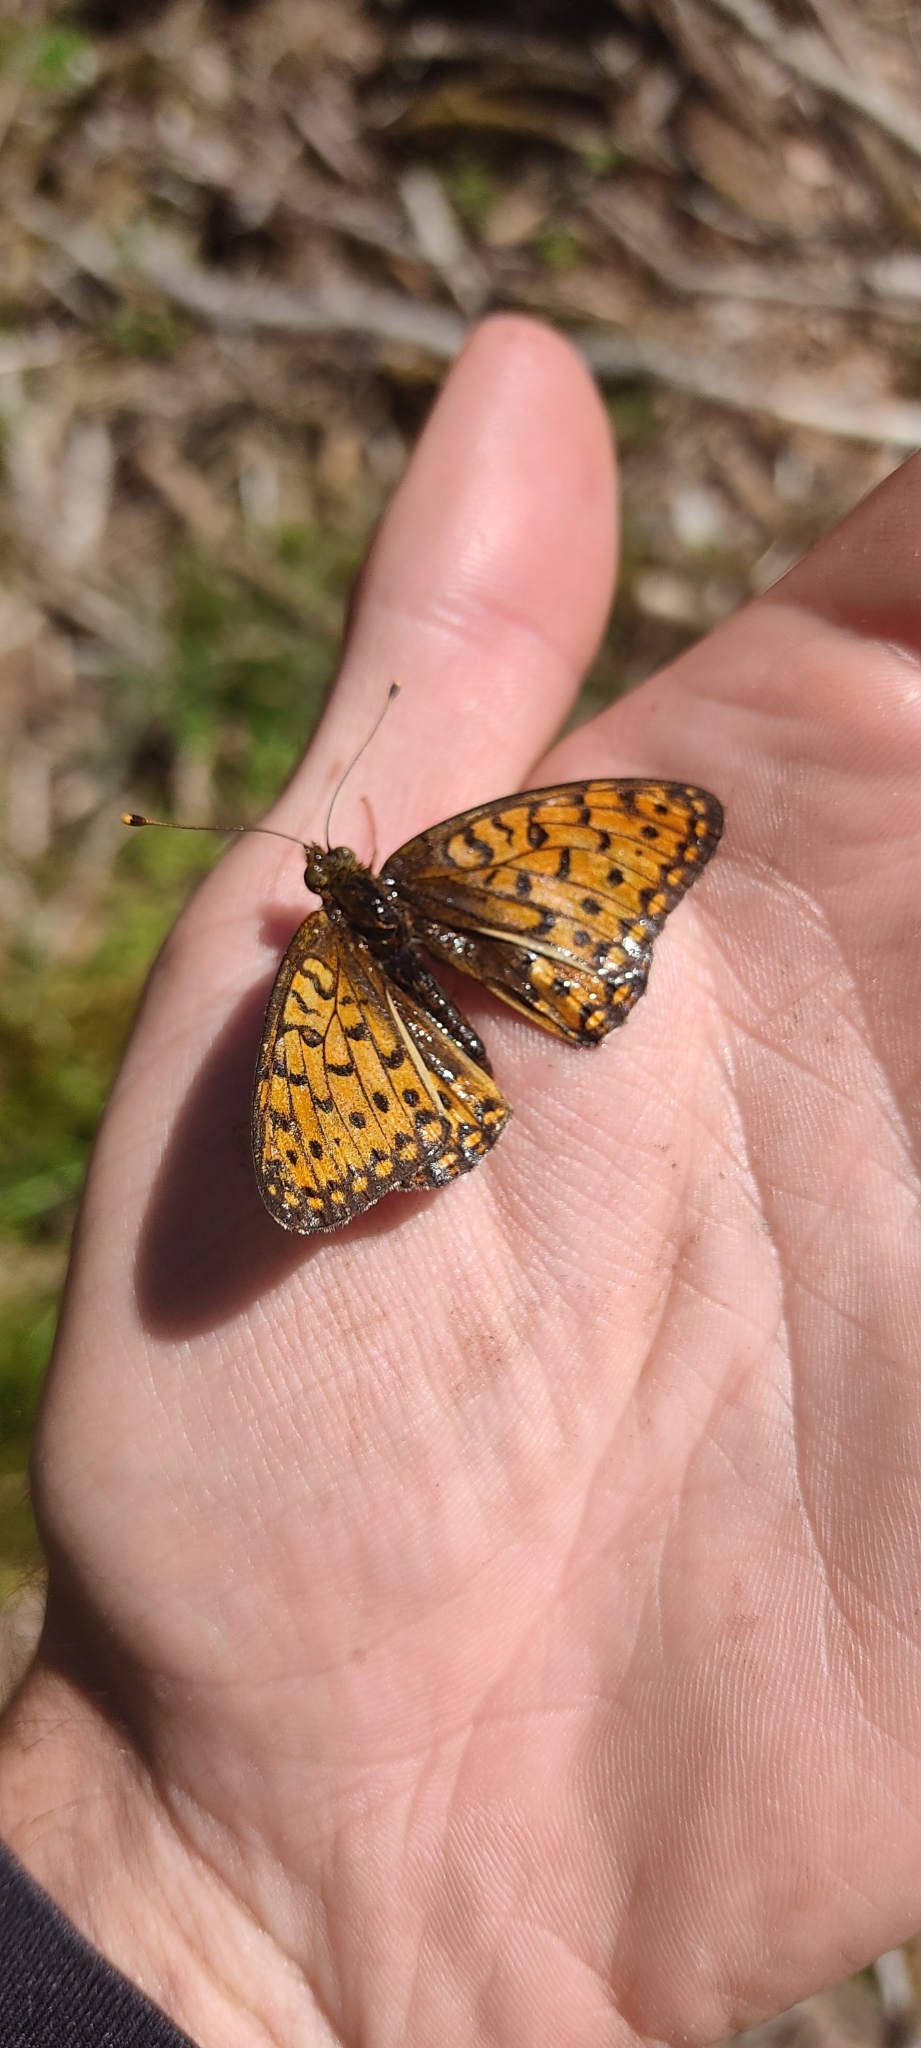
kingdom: Animalia
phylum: Arthropoda
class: Insecta
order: Lepidoptera
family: Nymphalidae
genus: Speyeria
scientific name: Speyeria aglaja
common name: Dark green fritillary
